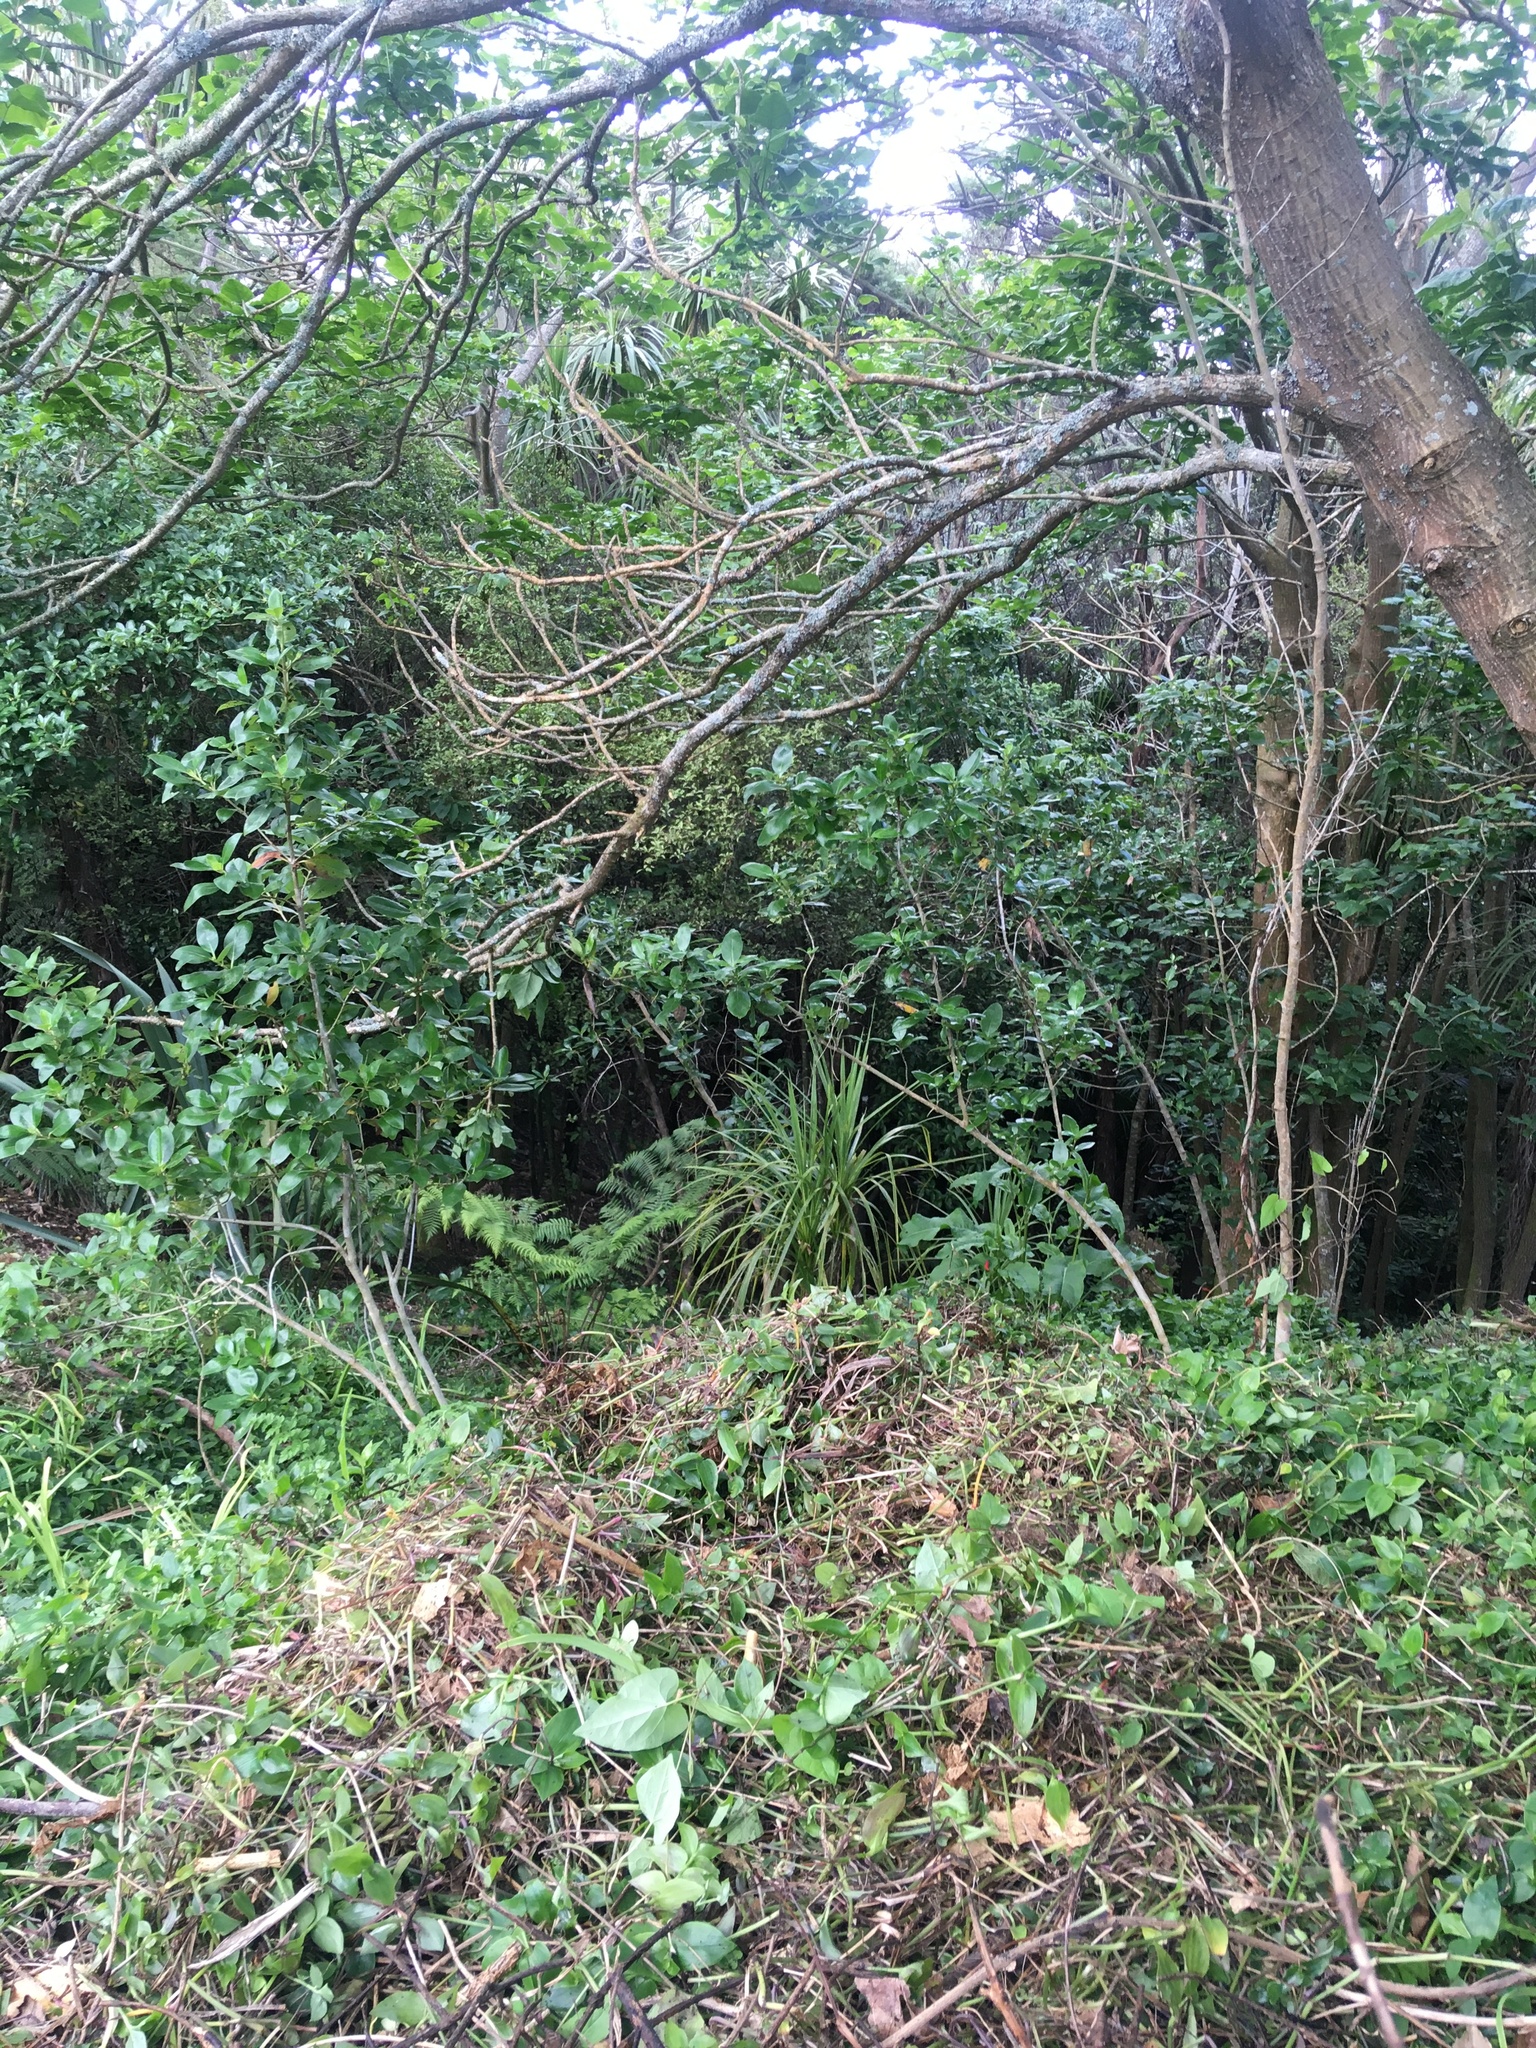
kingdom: Plantae
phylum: Tracheophyta
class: Magnoliopsida
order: Gentianales
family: Rubiaceae
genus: Coprosma
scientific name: Coprosma robusta
